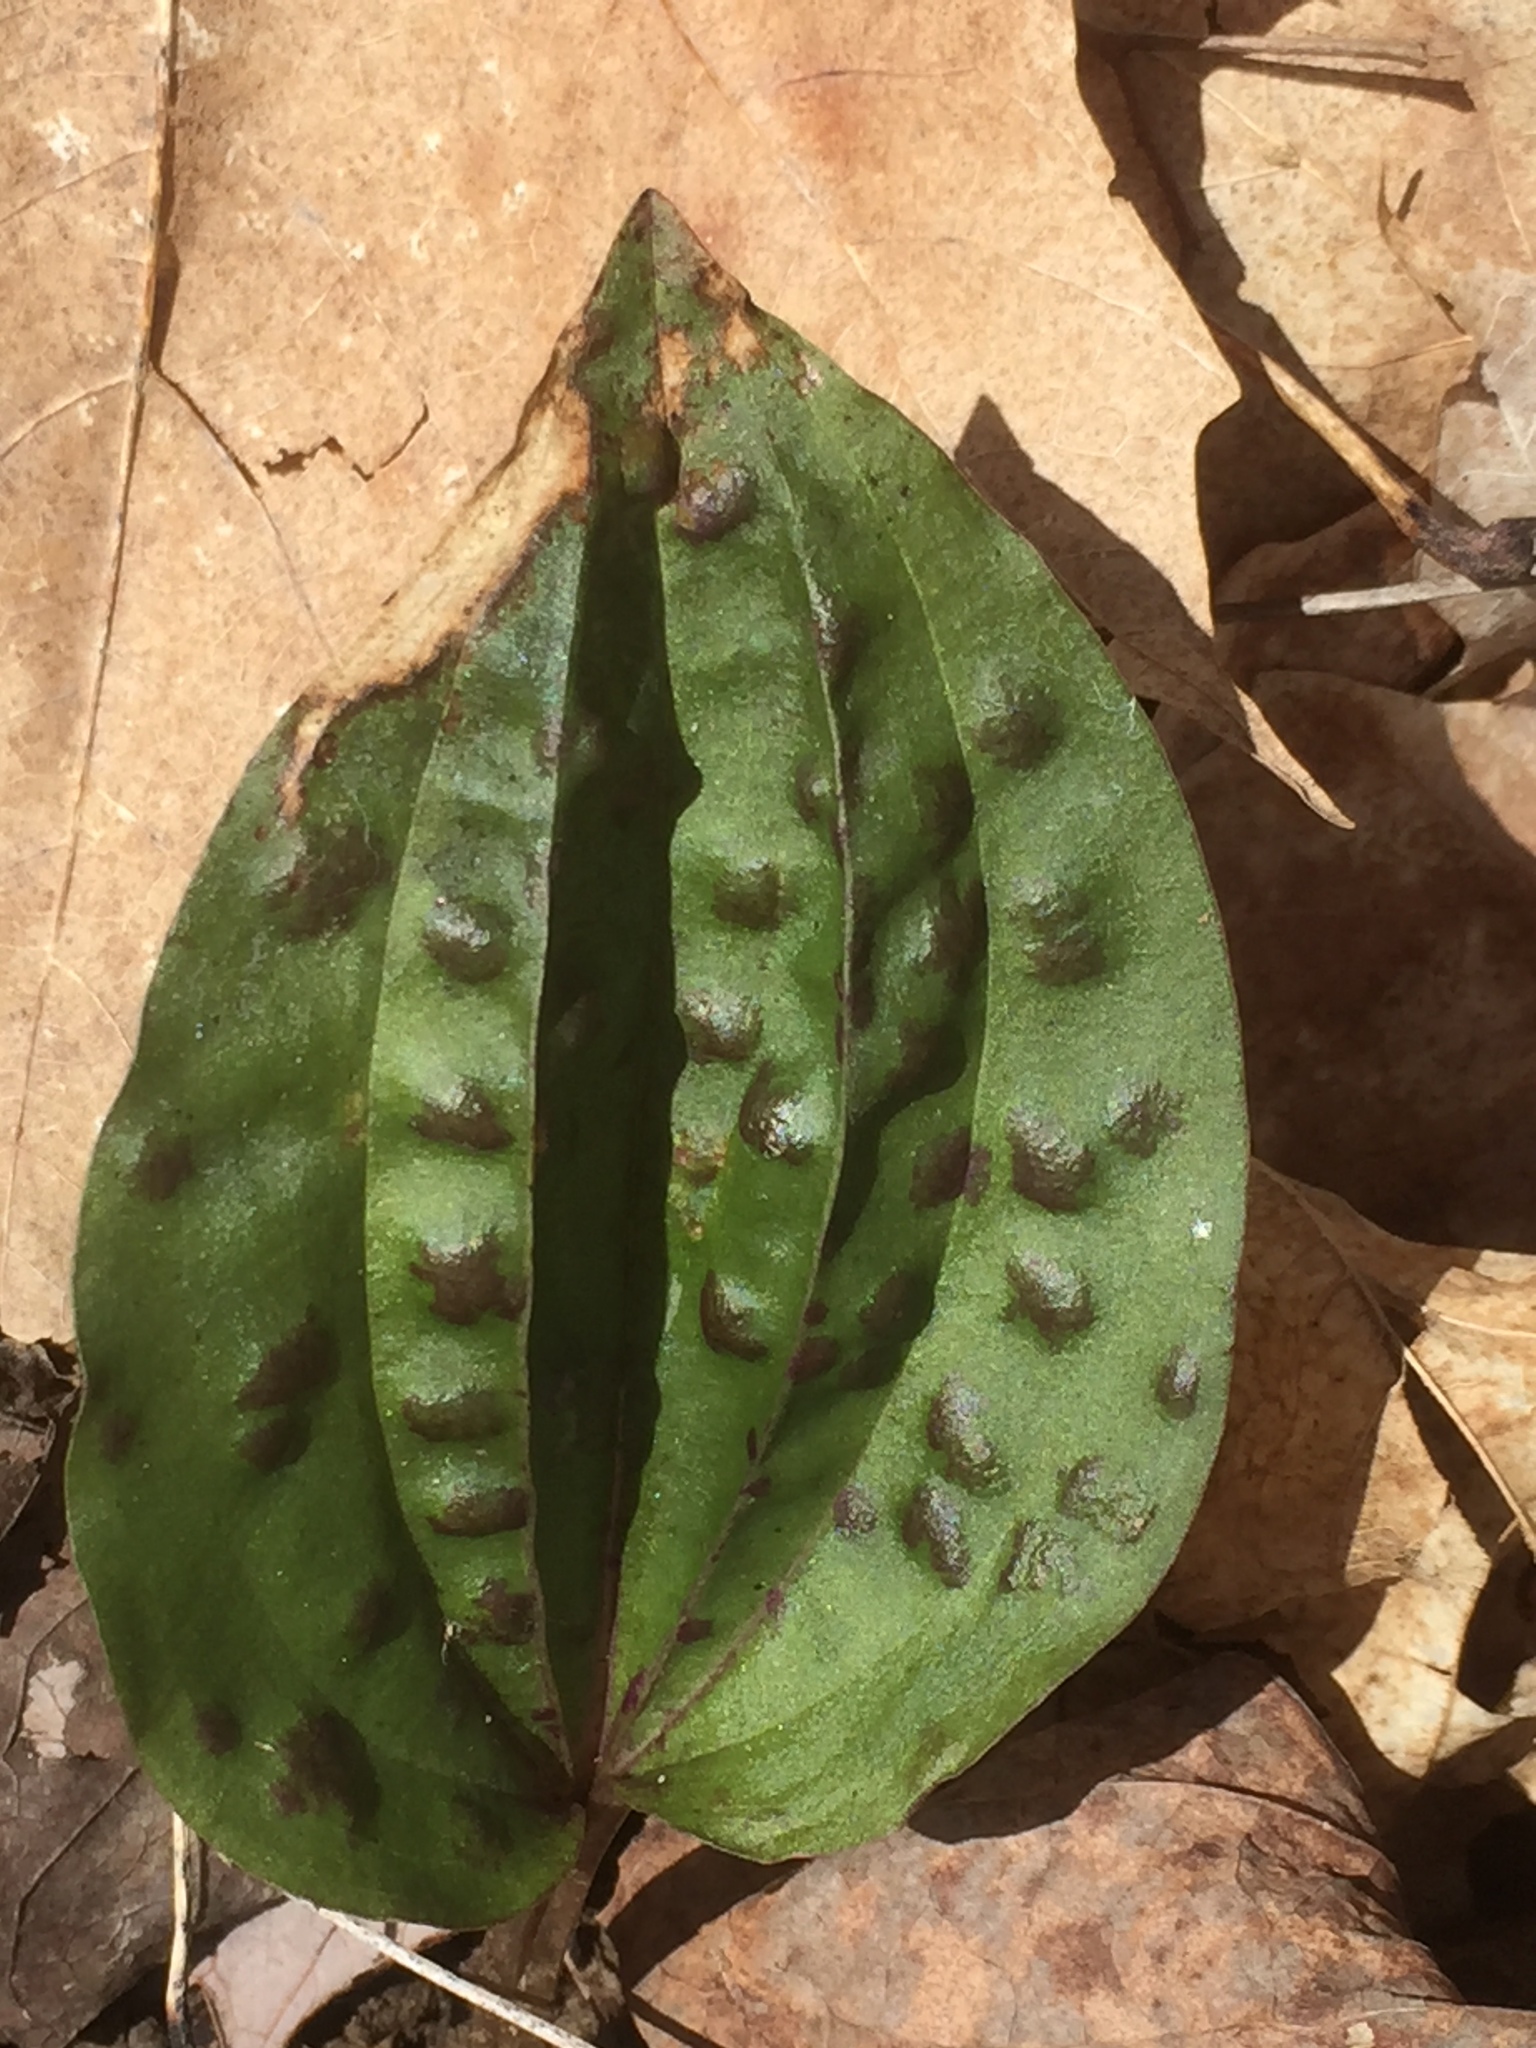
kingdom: Plantae
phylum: Tracheophyta
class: Liliopsida
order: Asparagales
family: Orchidaceae
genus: Tipularia
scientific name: Tipularia discolor
